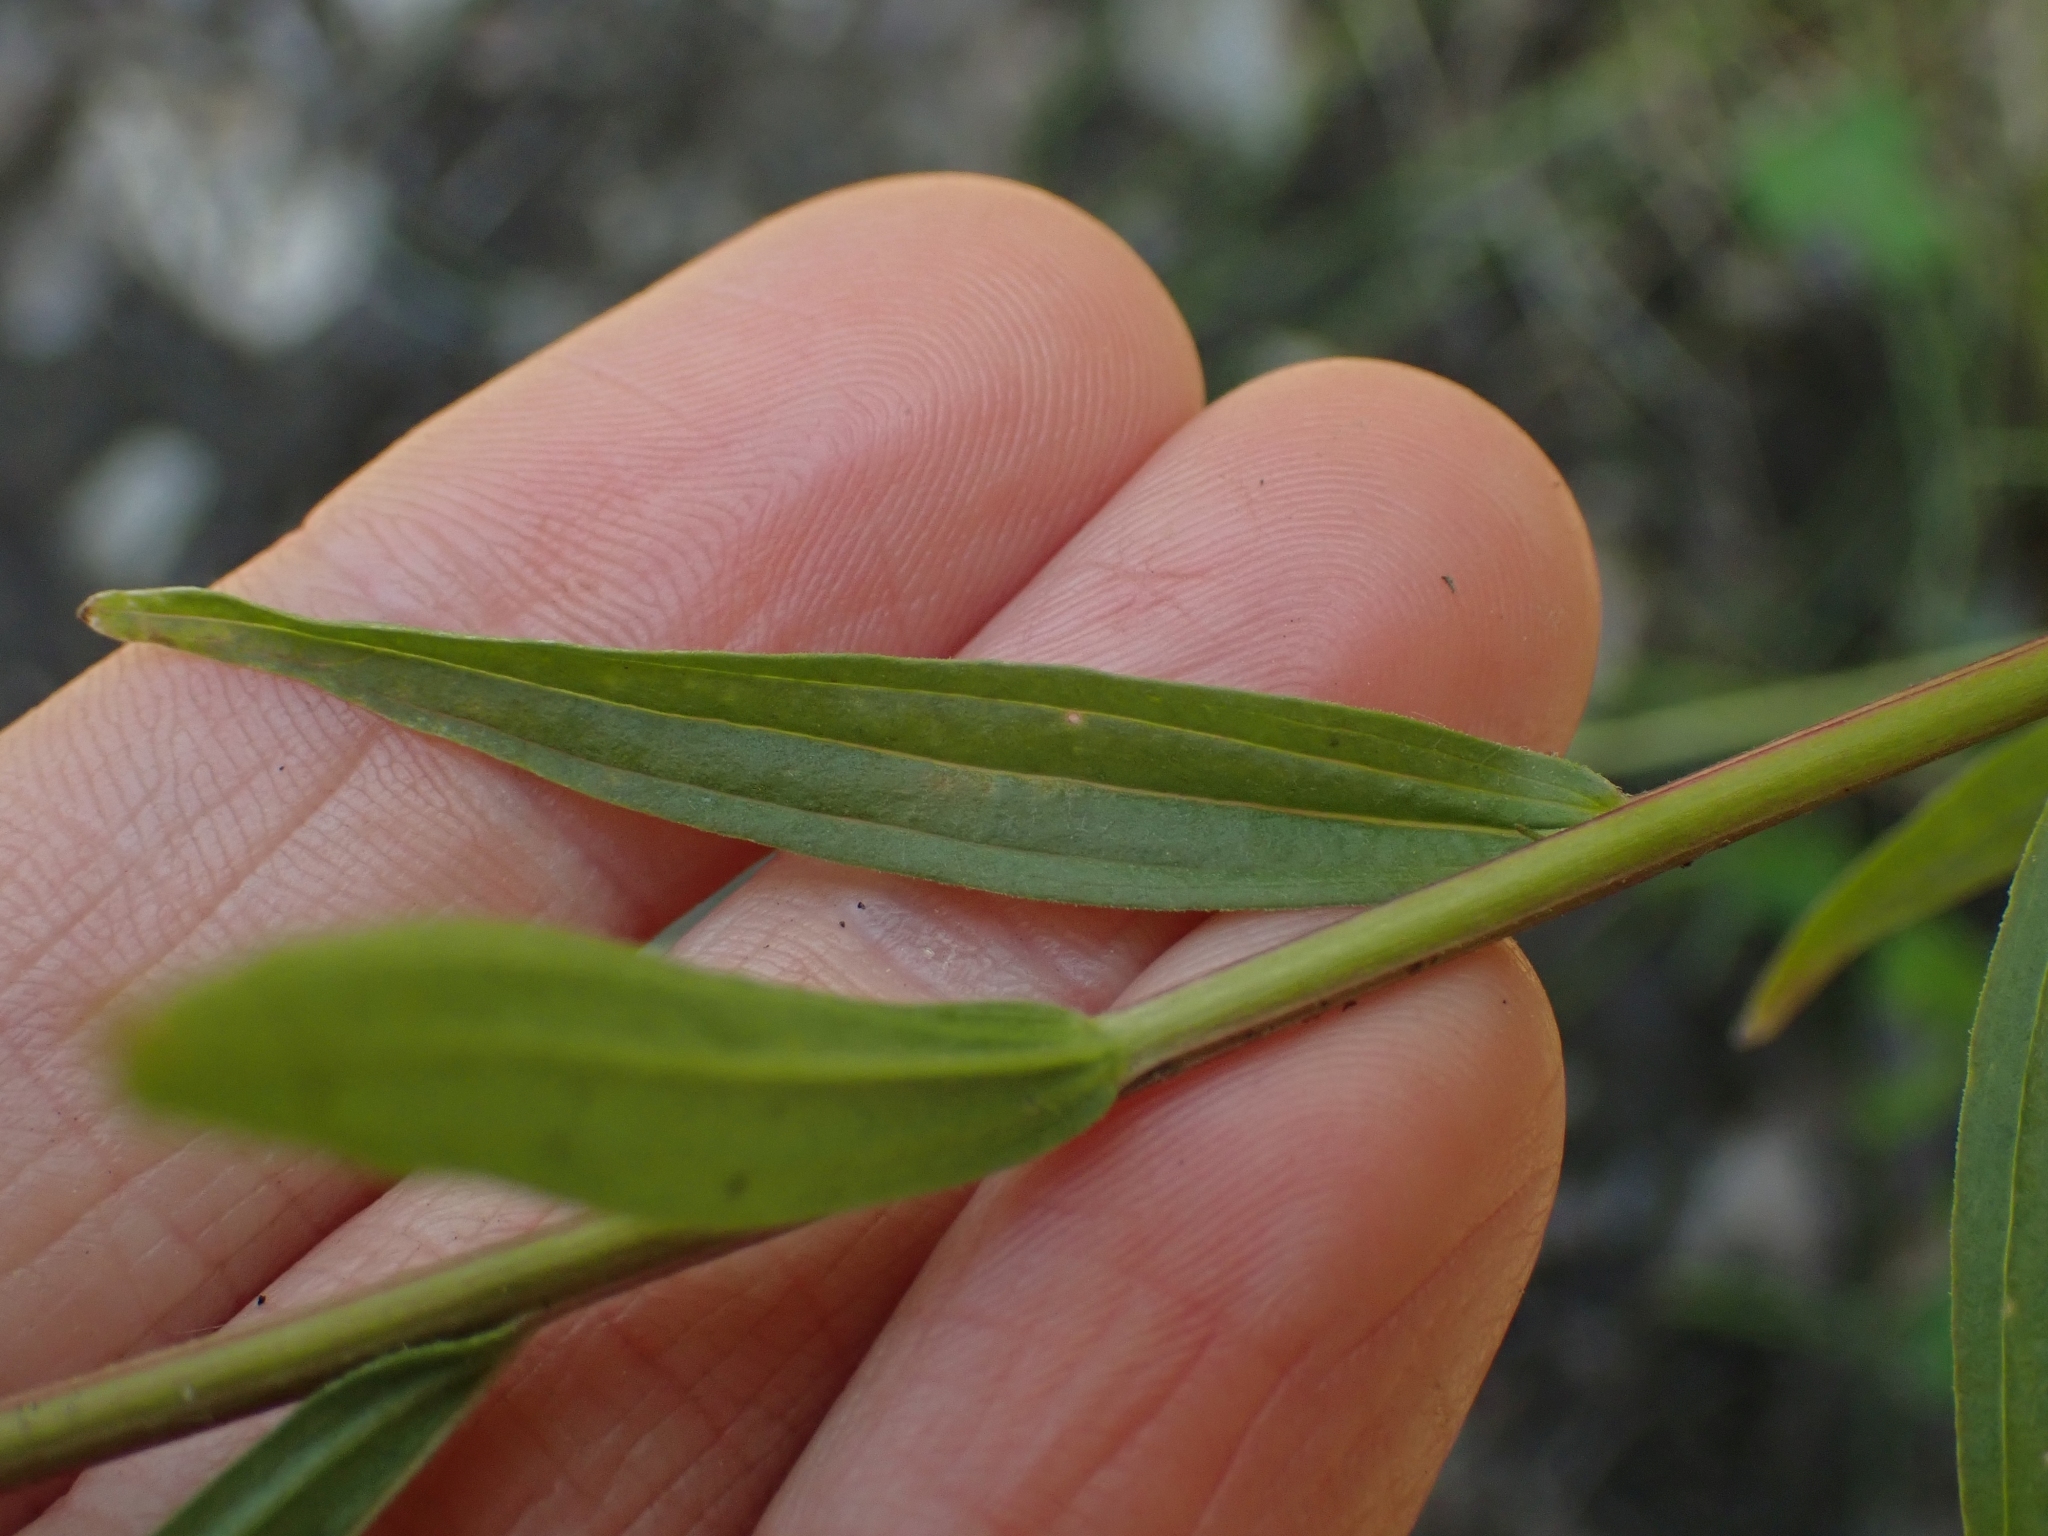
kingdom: Plantae
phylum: Tracheophyta
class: Magnoliopsida
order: Lamiales
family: Orobanchaceae
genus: Castilleja
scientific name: Castilleja miniata
